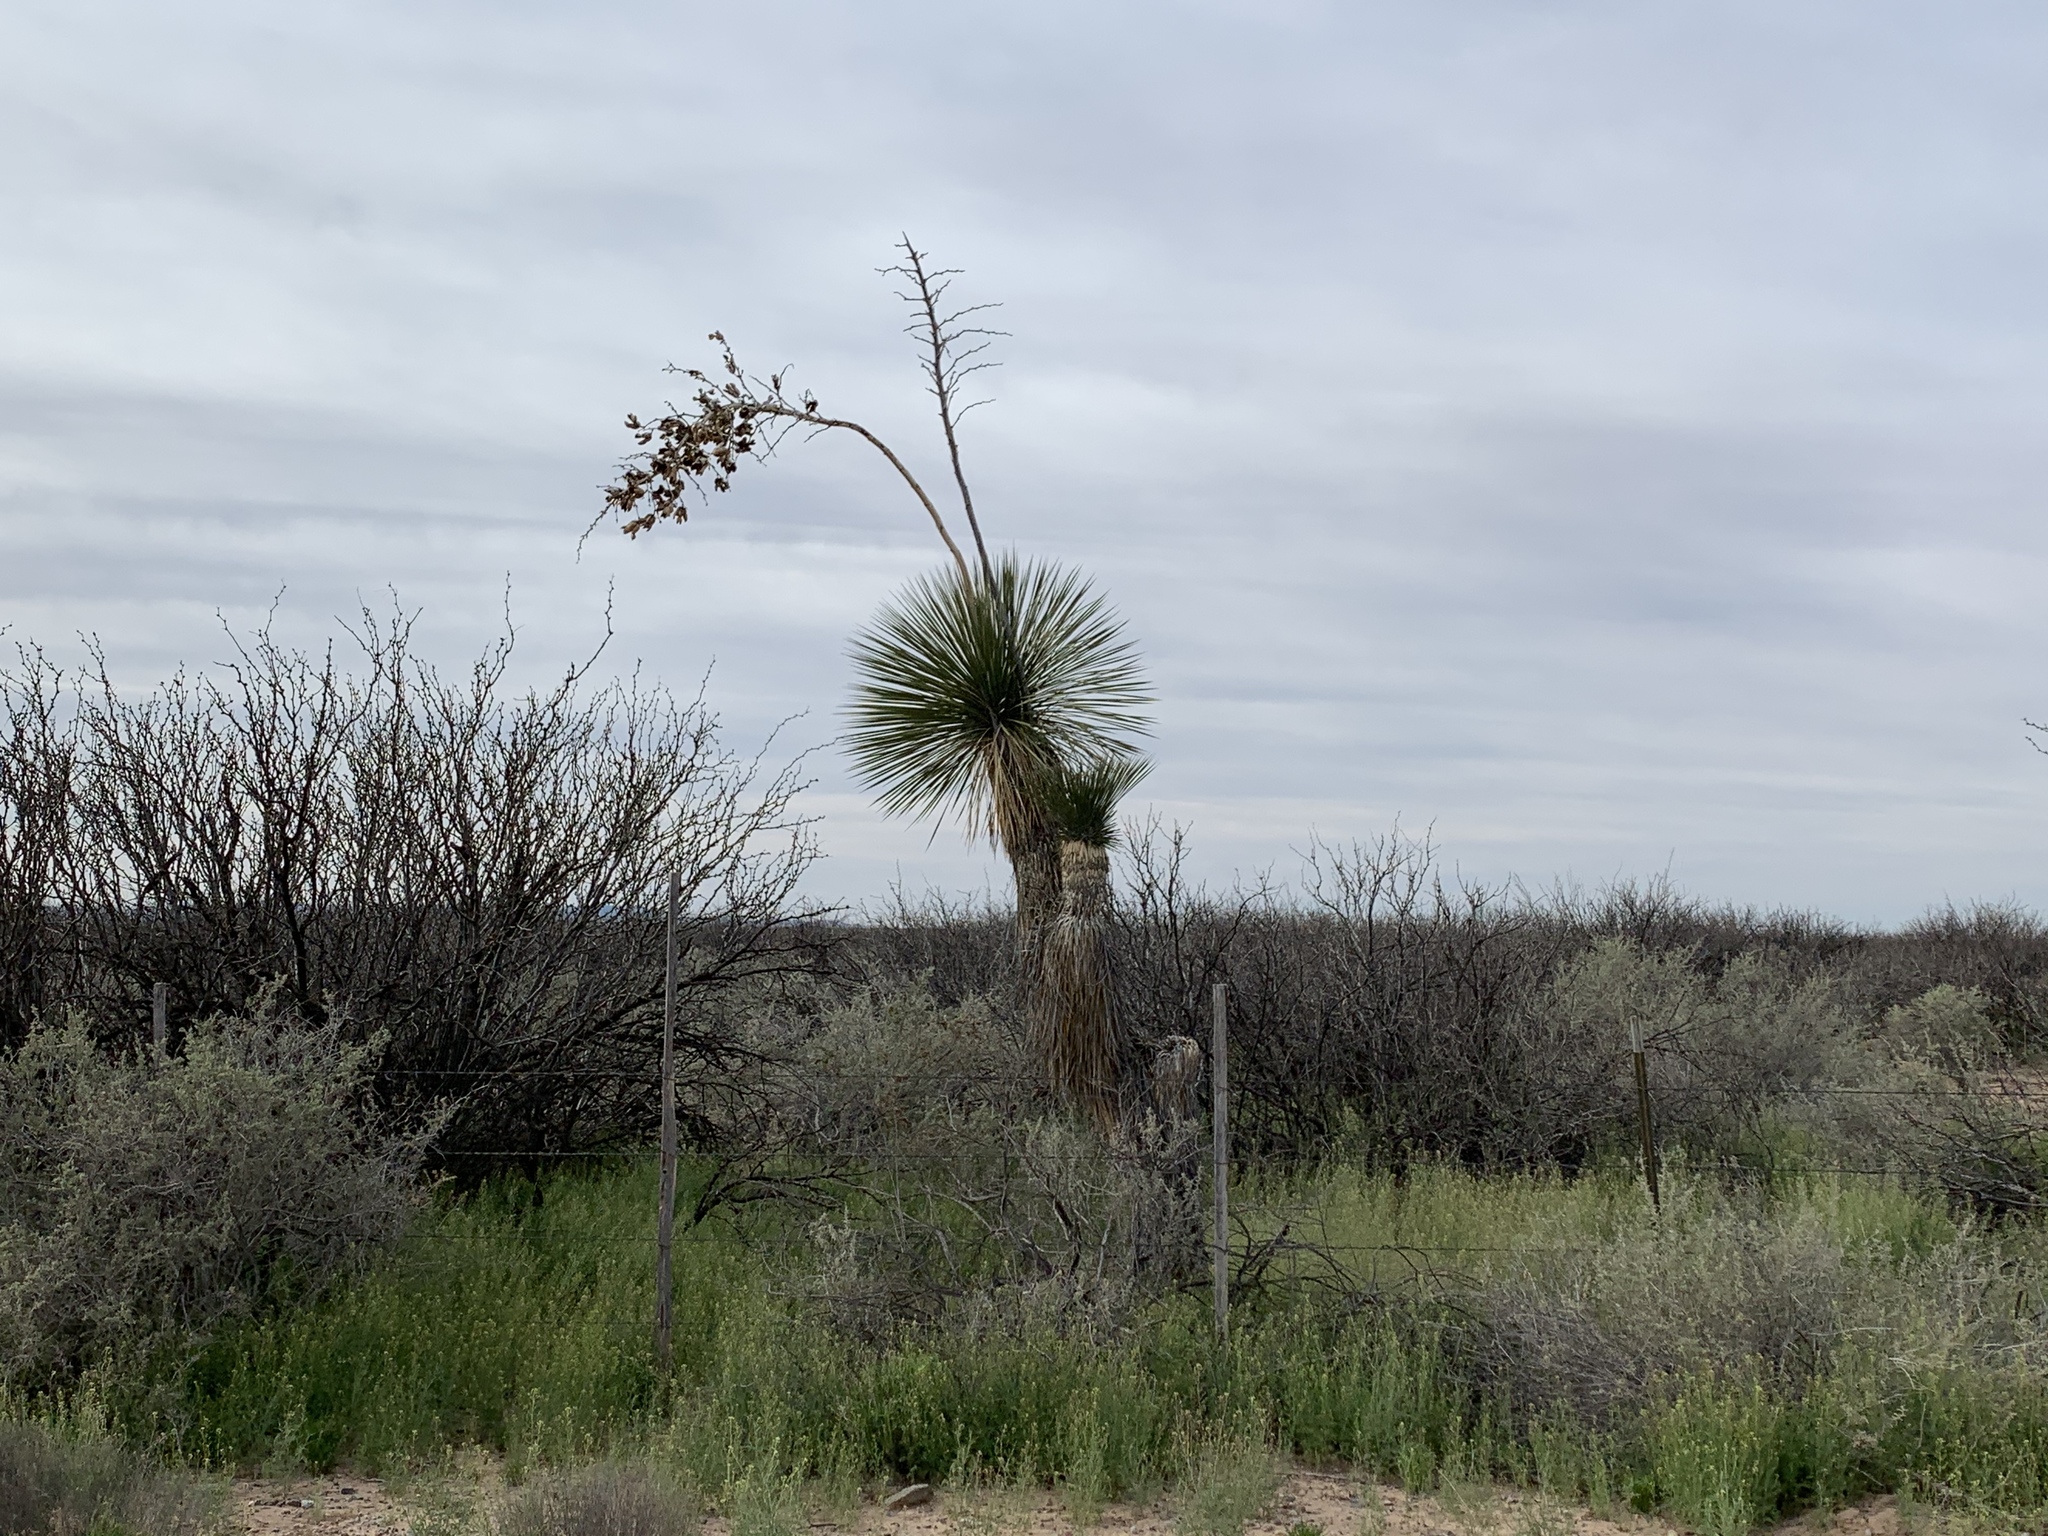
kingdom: Plantae
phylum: Tracheophyta
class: Liliopsida
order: Asparagales
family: Asparagaceae
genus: Yucca
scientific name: Yucca elata
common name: Palmella
